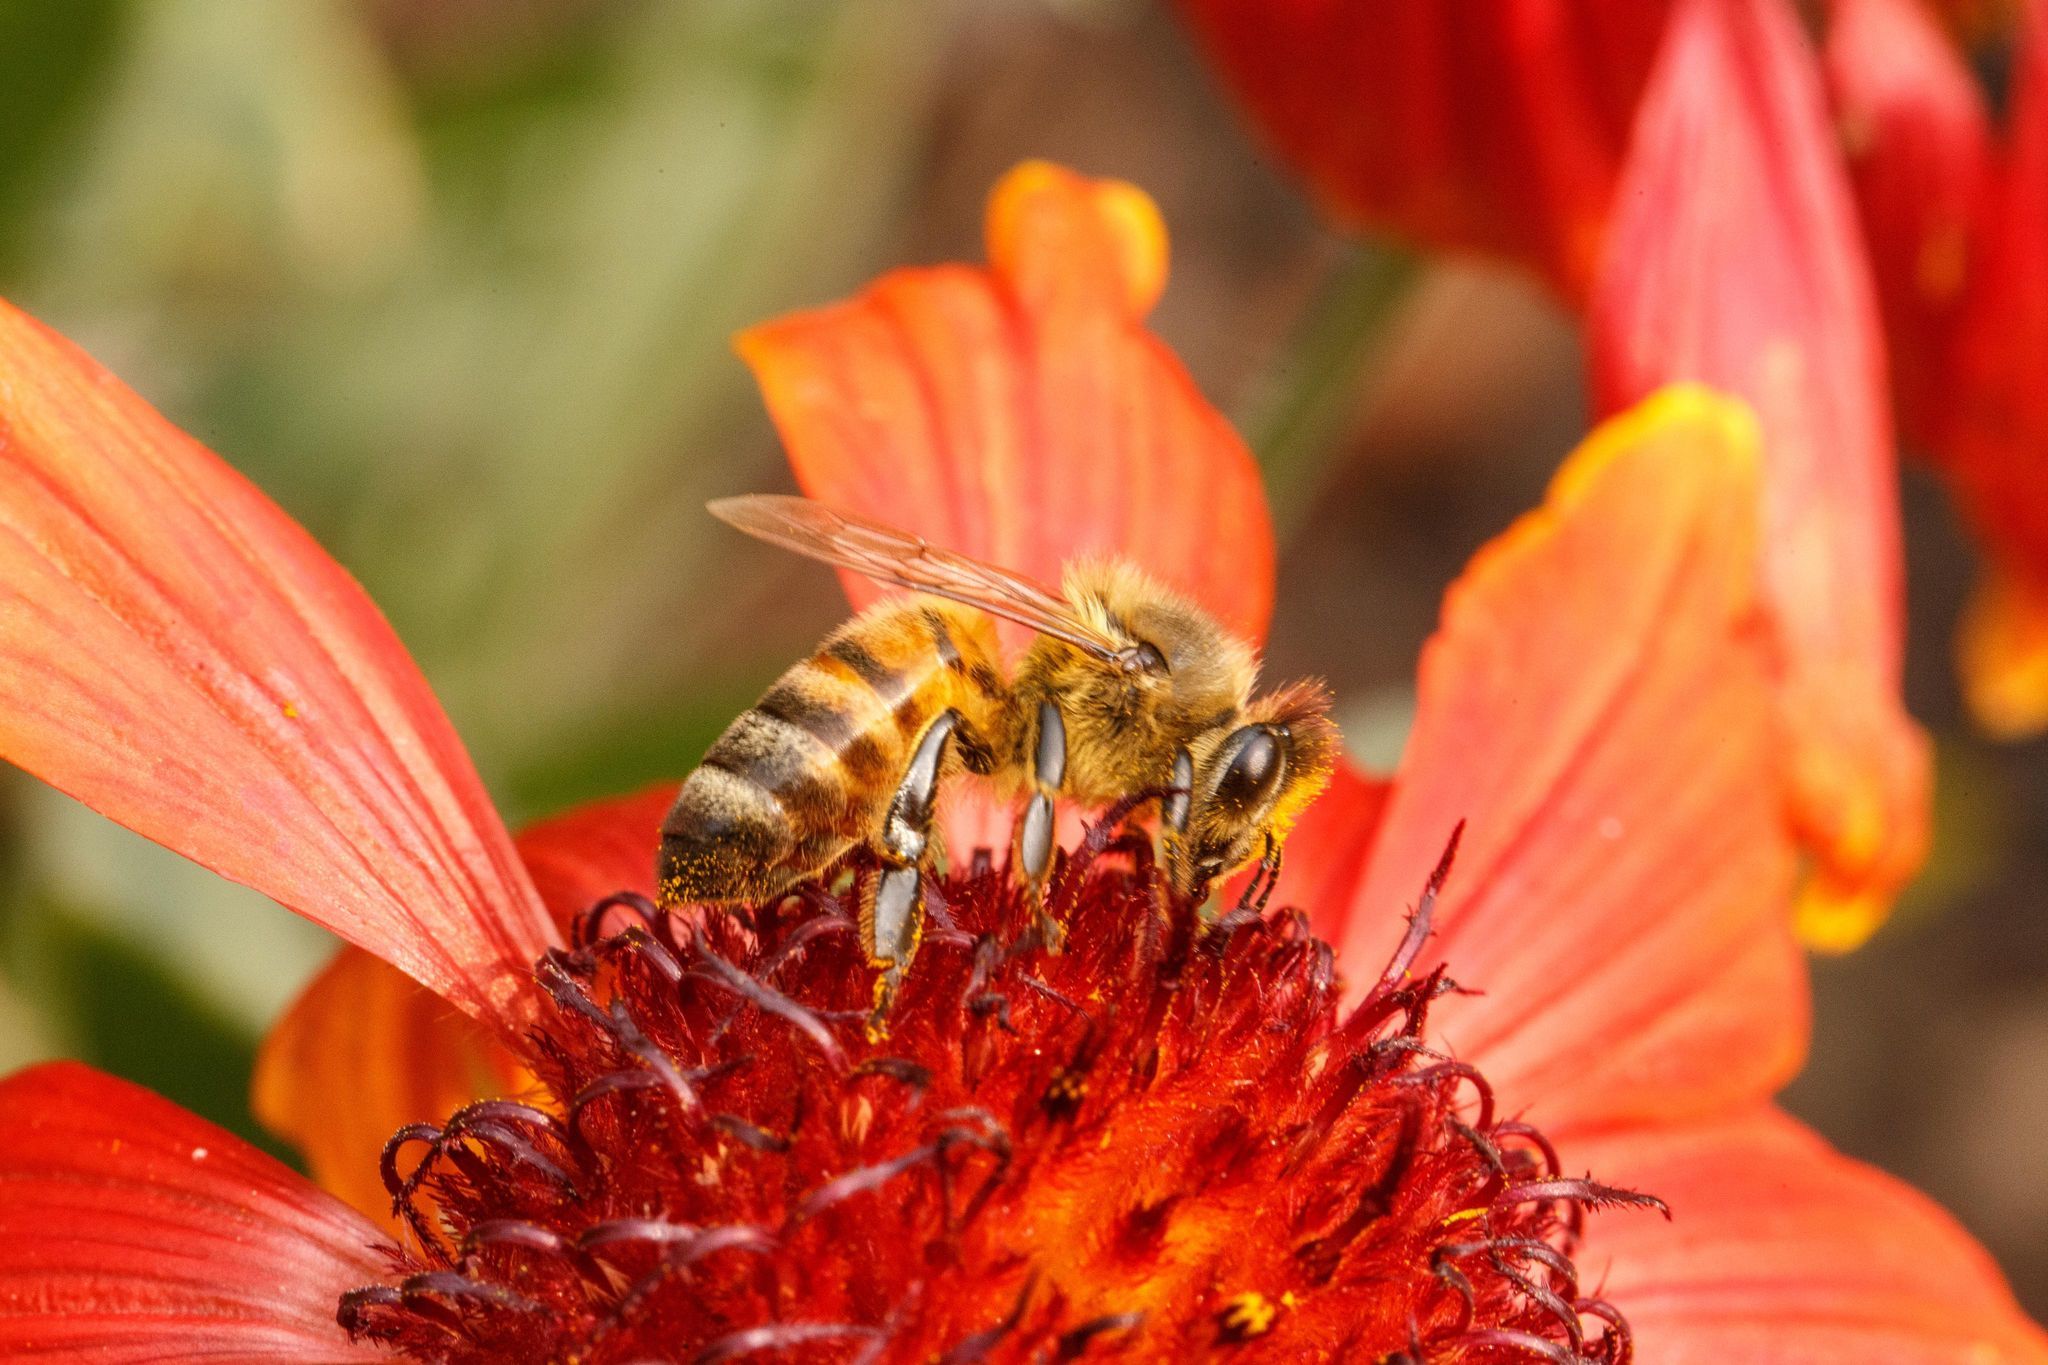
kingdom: Animalia
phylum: Arthropoda
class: Insecta
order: Hymenoptera
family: Apidae
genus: Apis
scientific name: Apis mellifera
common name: Honey bee
